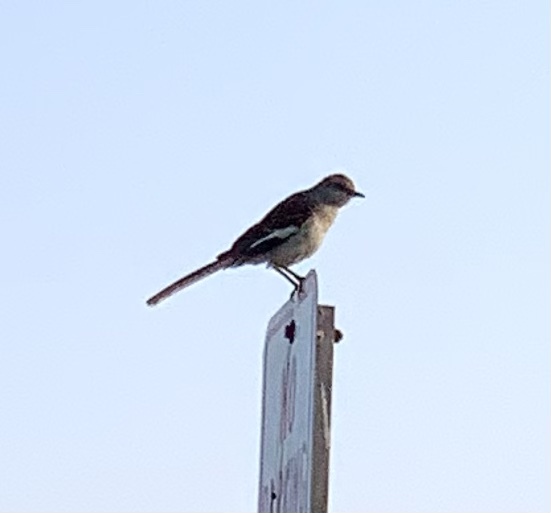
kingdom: Animalia
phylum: Chordata
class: Aves
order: Passeriformes
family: Mimidae
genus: Mimus
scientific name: Mimus polyglottos
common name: Northern mockingbird
